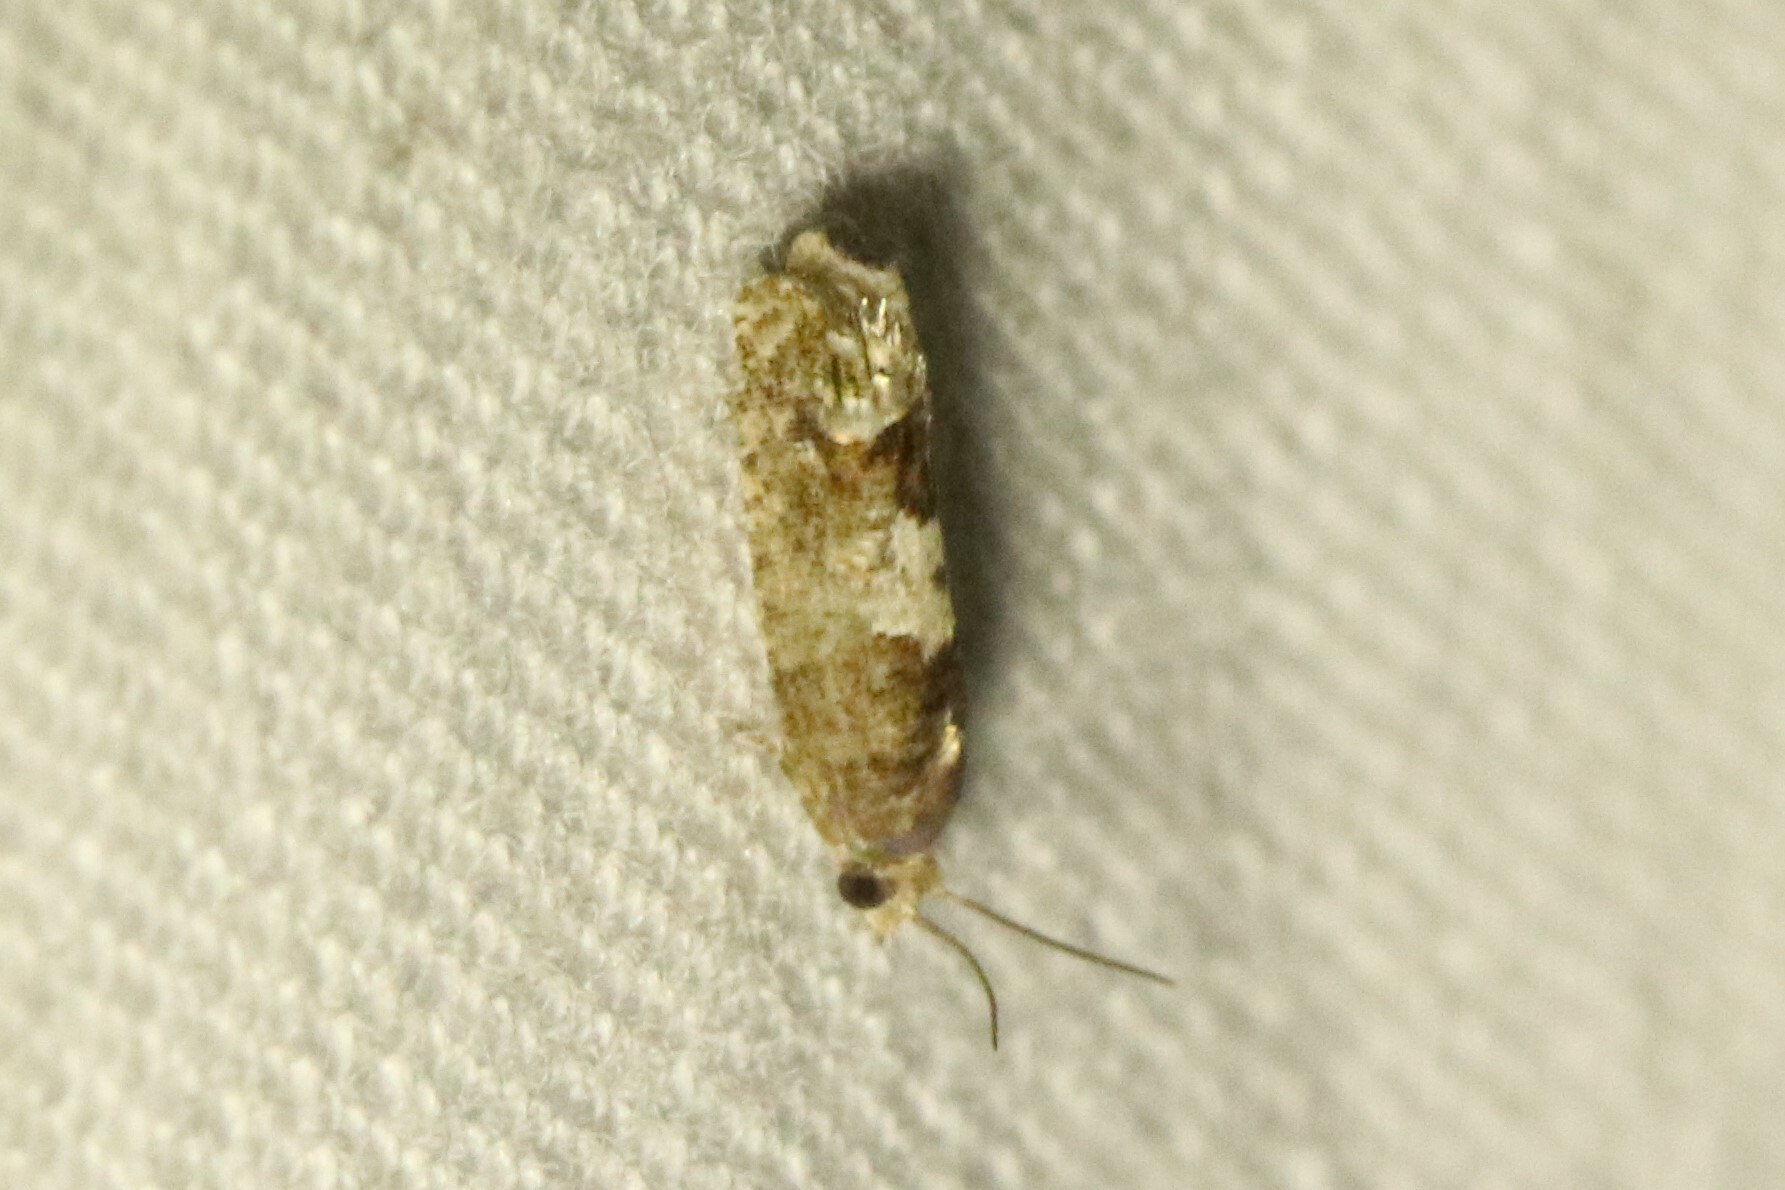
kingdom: Animalia
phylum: Arthropoda
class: Insecta
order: Lepidoptera
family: Tortricidae
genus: Eucosma
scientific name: Eucosma parmatana
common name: Aster eucosma moth
